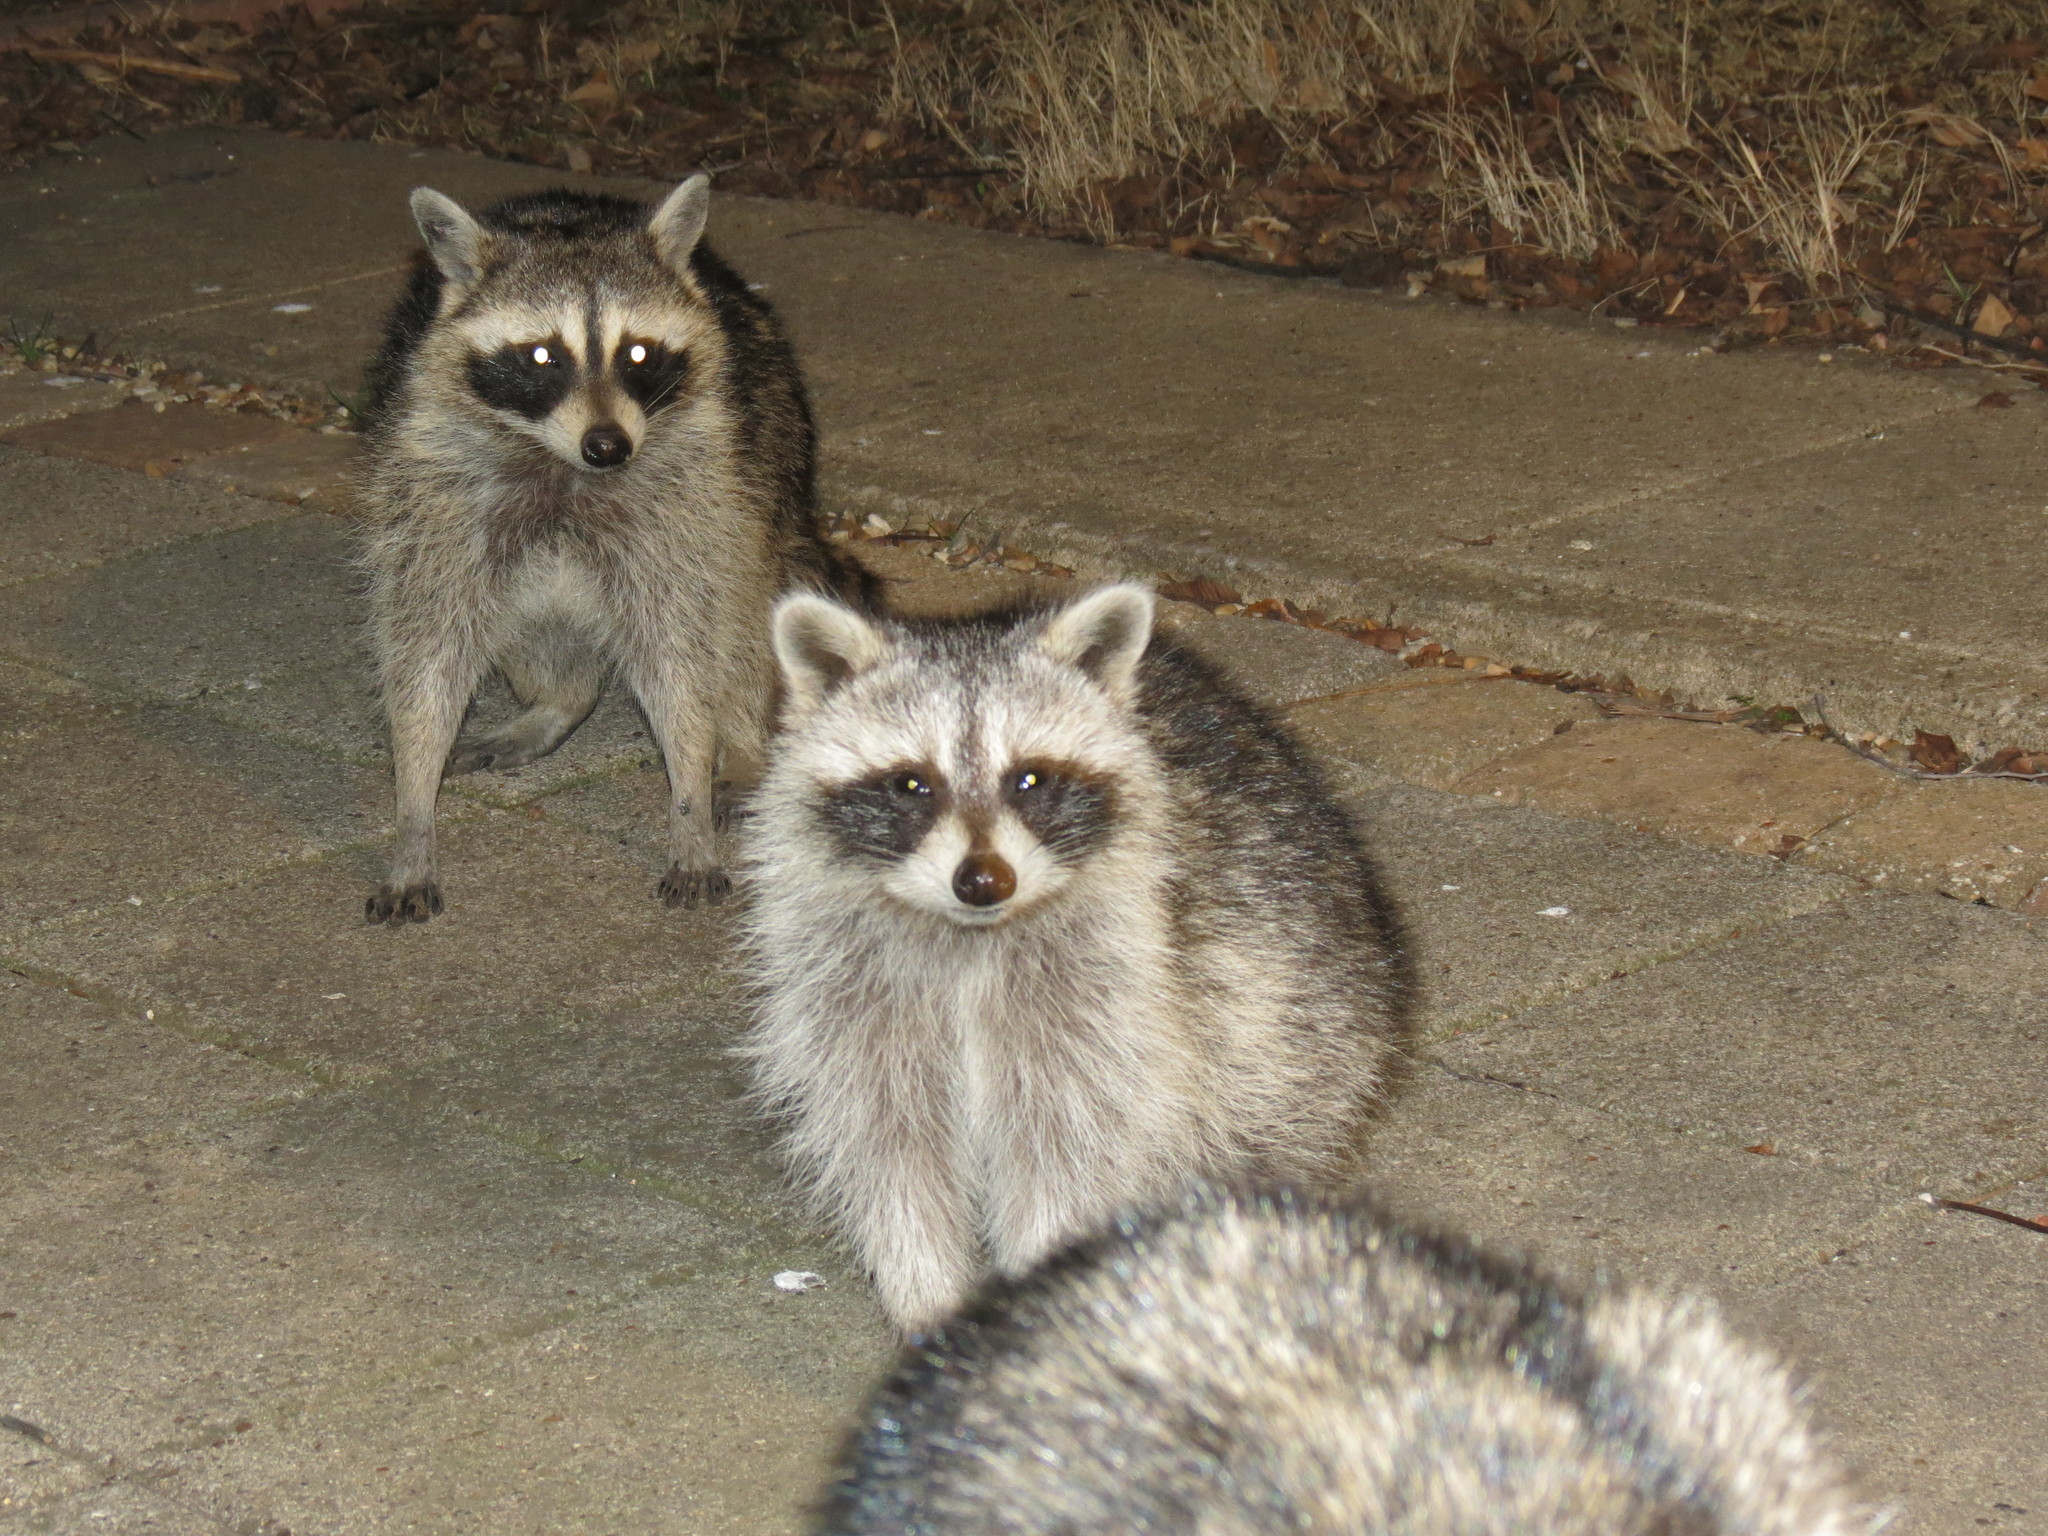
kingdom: Animalia
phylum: Chordata
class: Mammalia
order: Carnivora
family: Procyonidae
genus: Procyon
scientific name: Procyon lotor
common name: Raccoon
